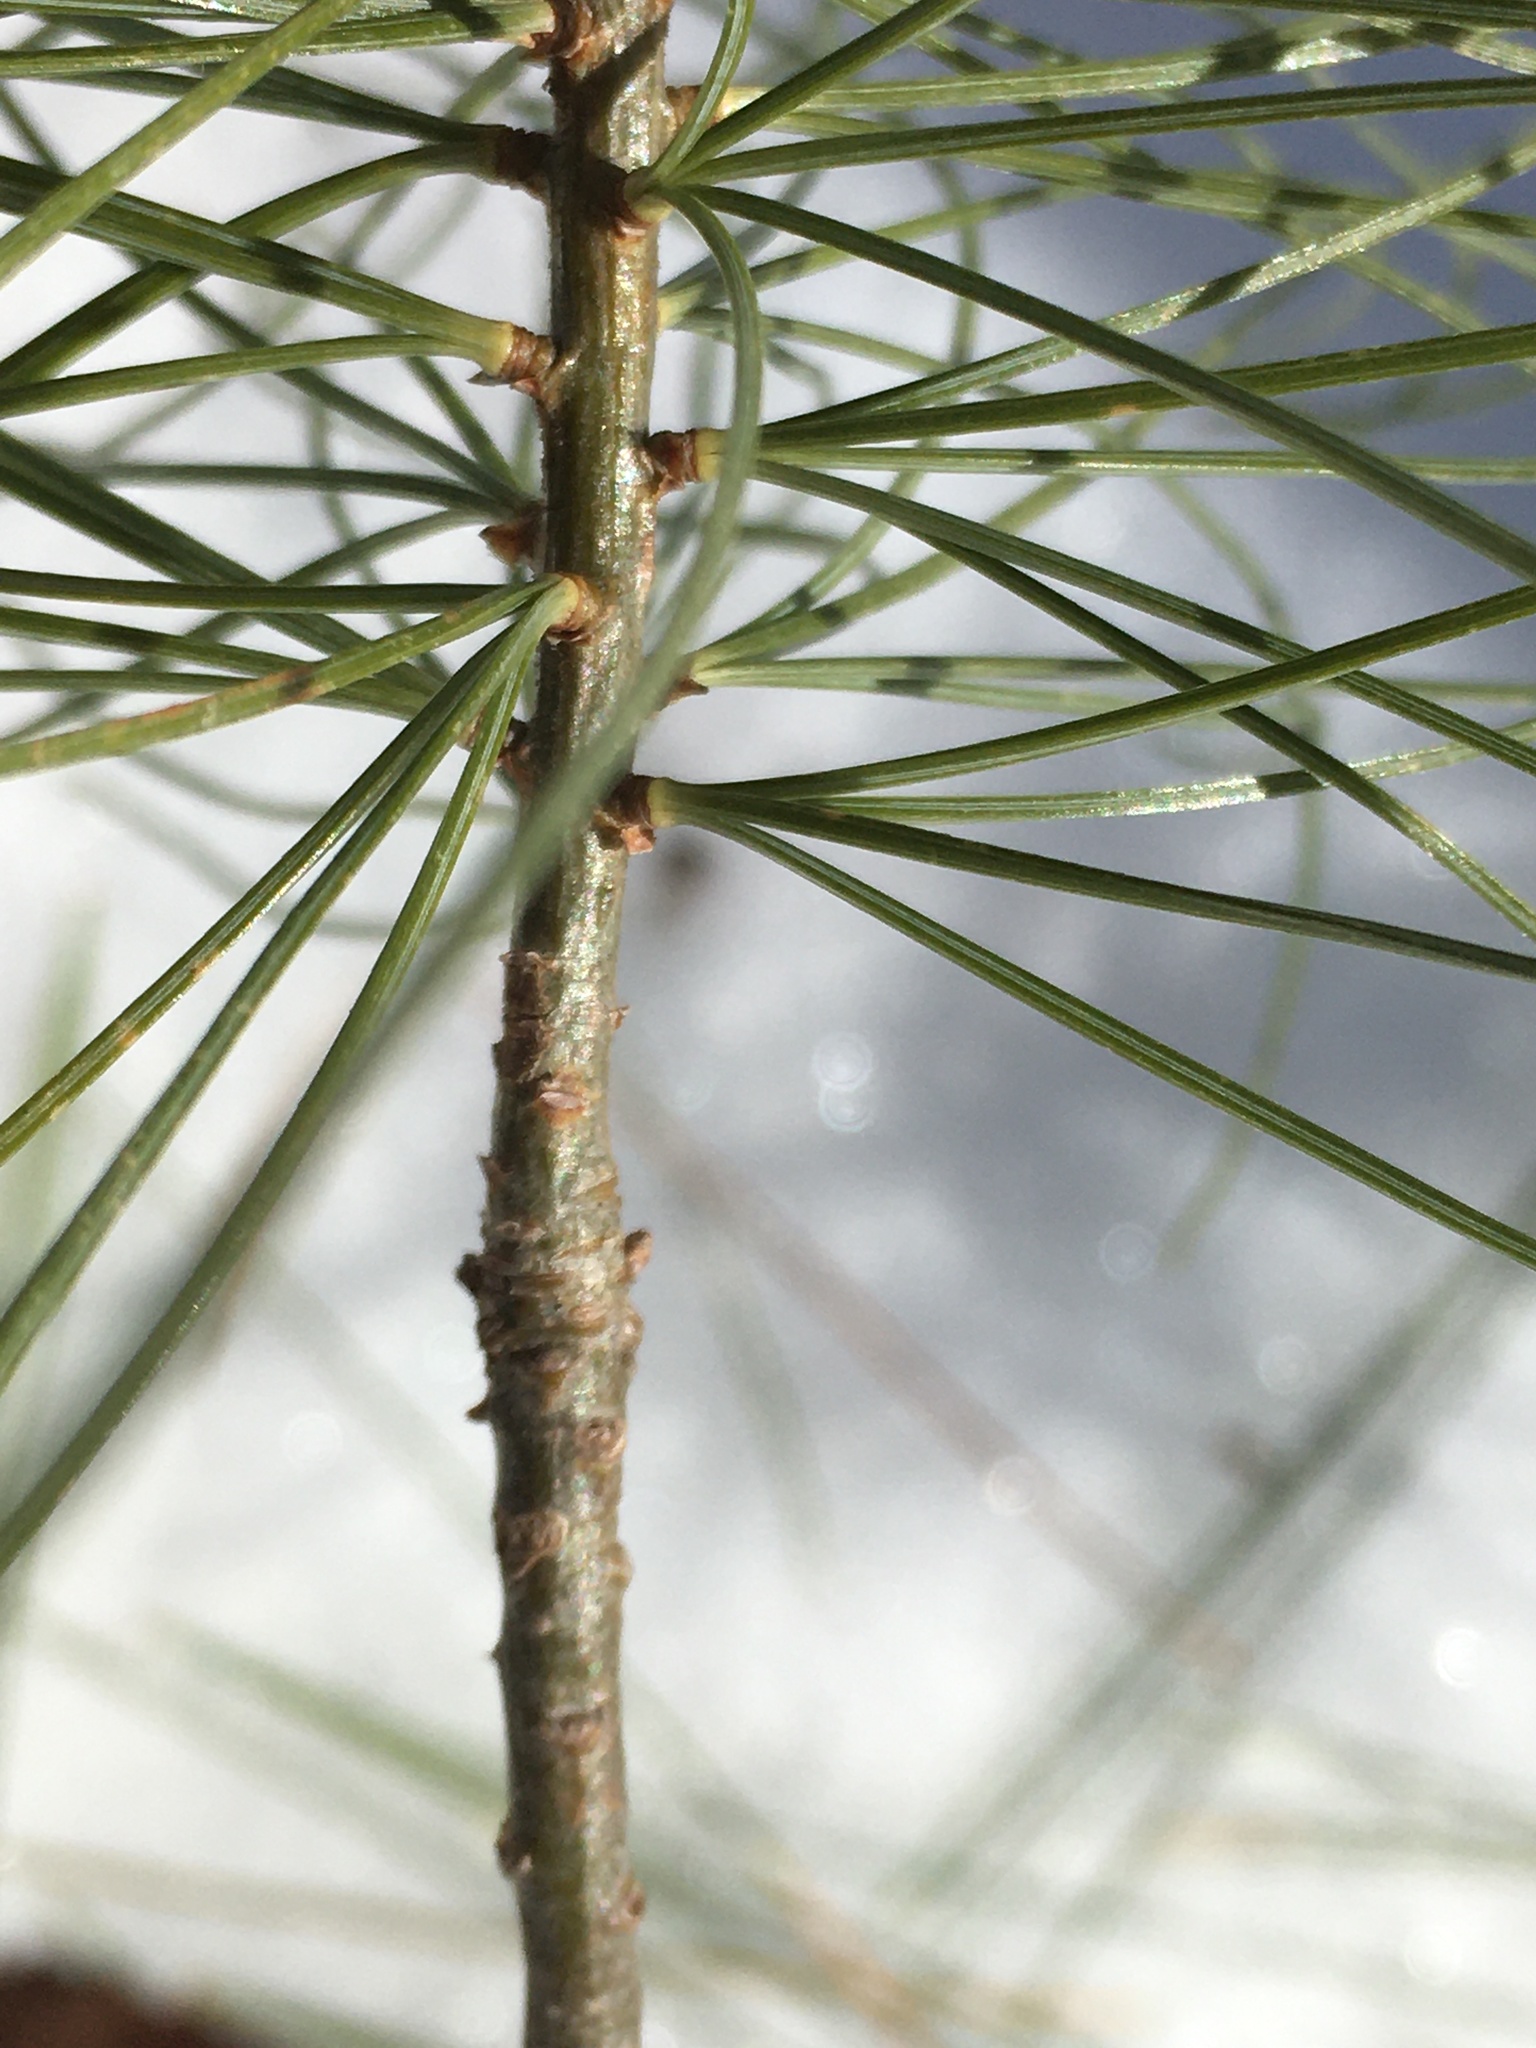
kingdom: Plantae
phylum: Tracheophyta
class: Pinopsida
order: Pinales
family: Pinaceae
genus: Pinus
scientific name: Pinus strobus
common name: Weymouth pine
